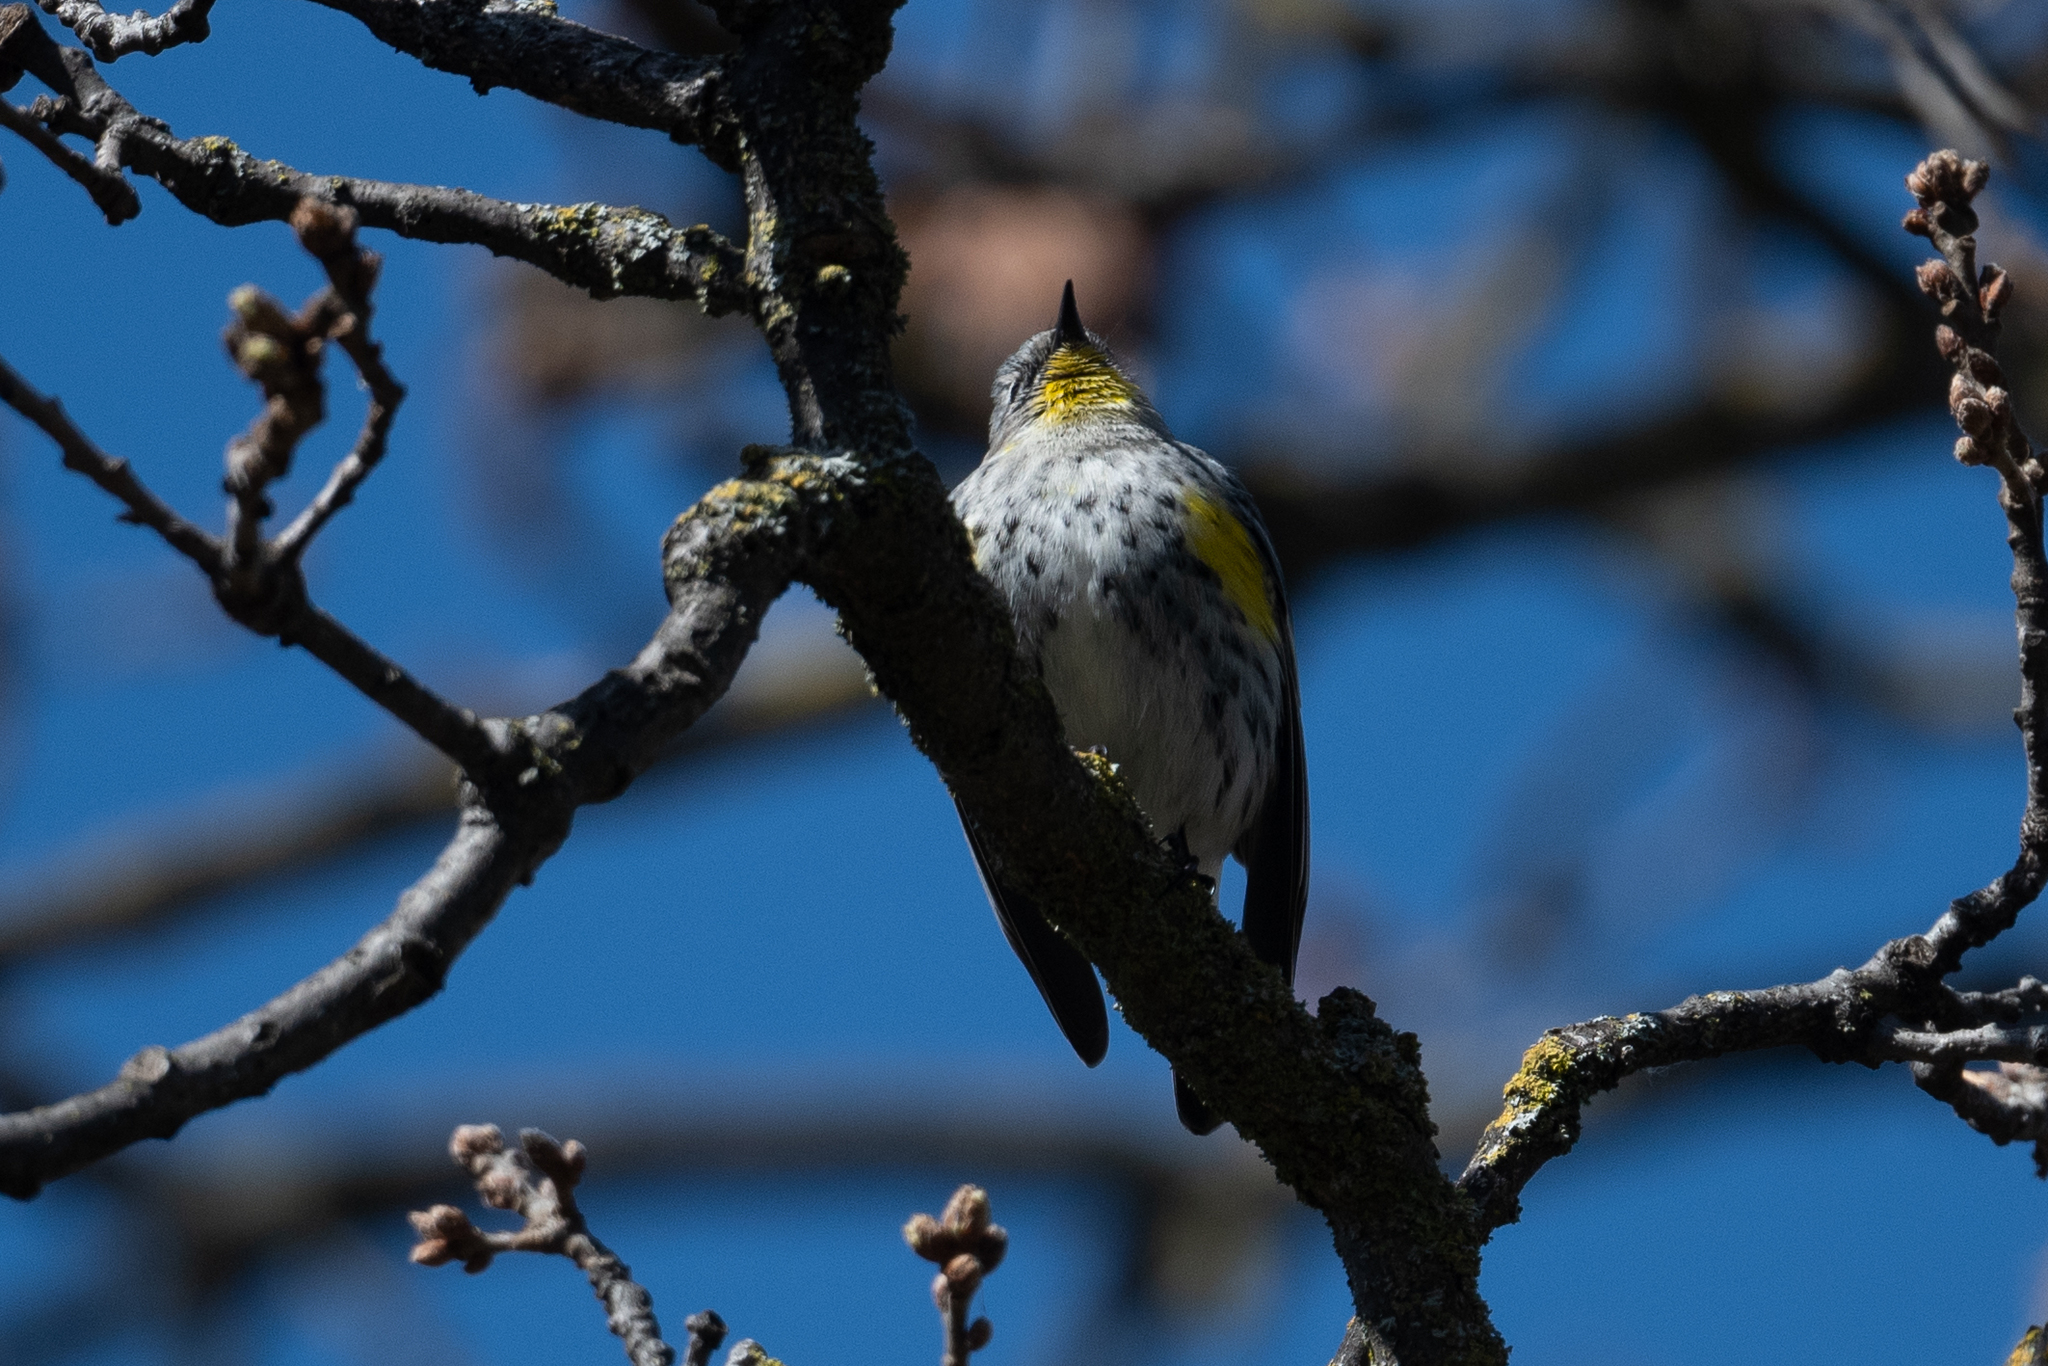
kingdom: Animalia
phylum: Chordata
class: Aves
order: Passeriformes
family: Parulidae
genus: Setophaga
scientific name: Setophaga coronata
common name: Myrtle warbler
